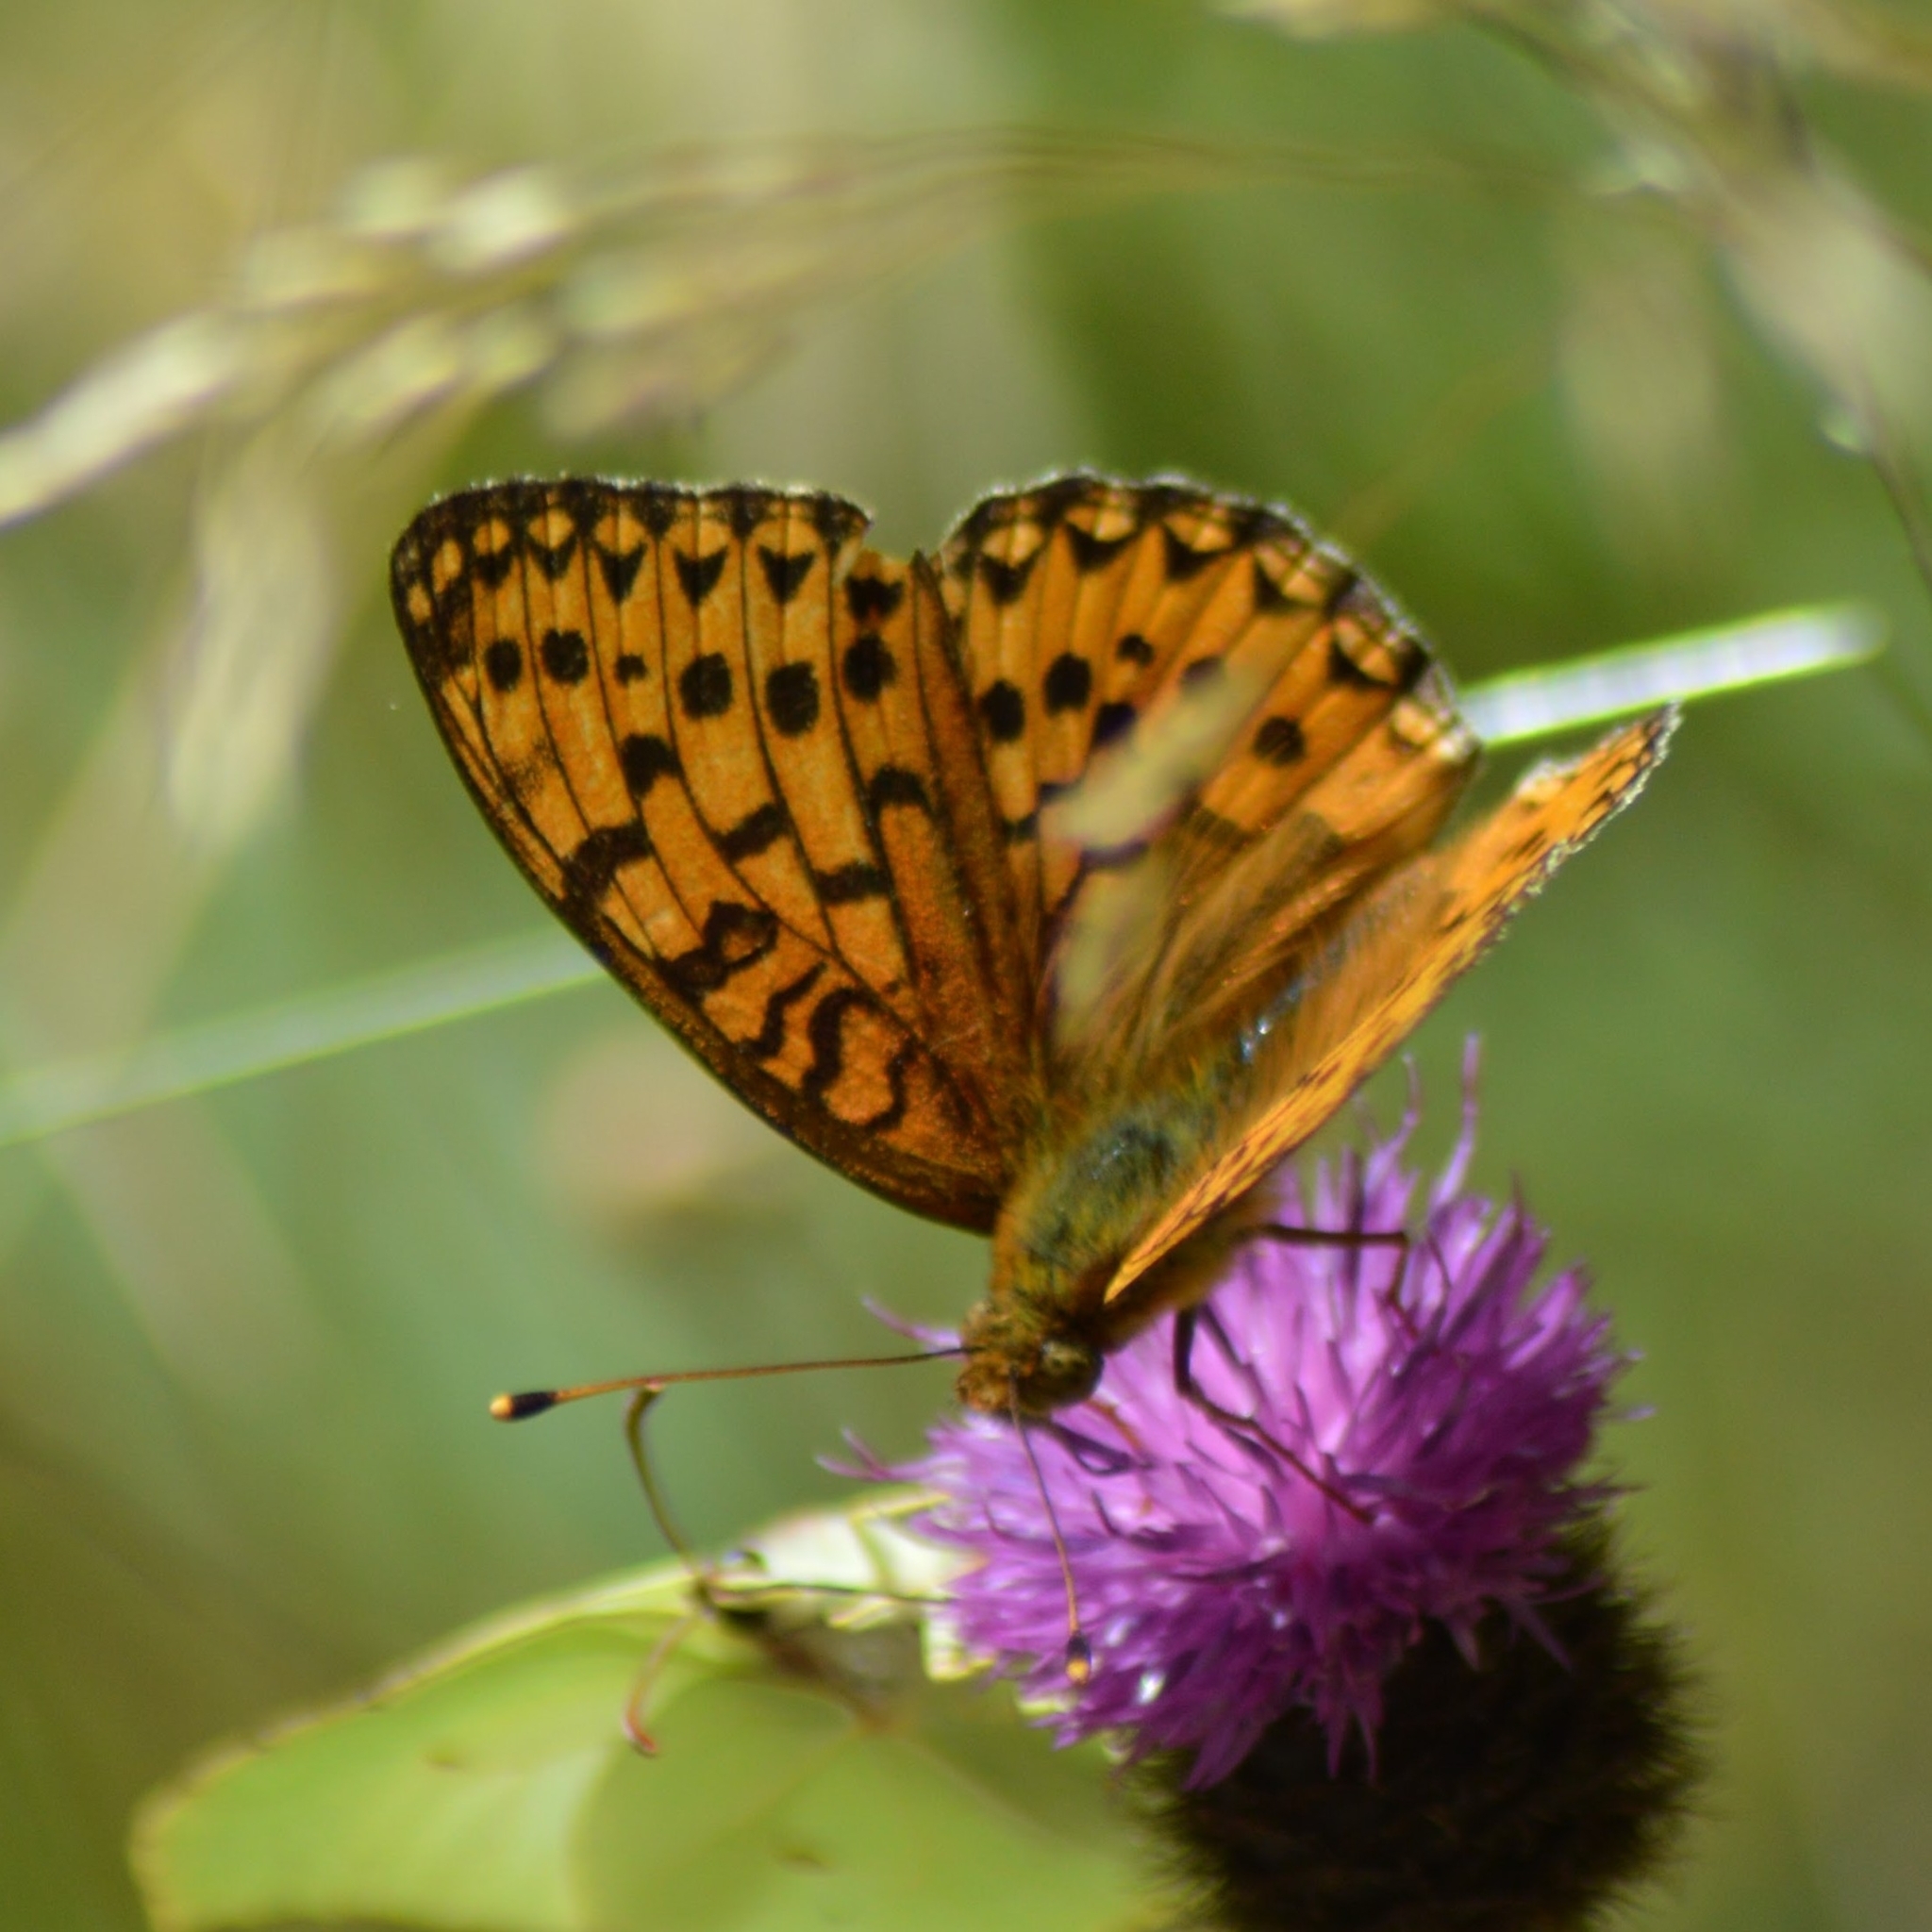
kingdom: Animalia
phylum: Arthropoda
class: Insecta
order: Lepidoptera
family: Nymphalidae
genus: Speyeria
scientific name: Speyeria aglaja
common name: Dark green fritillary
